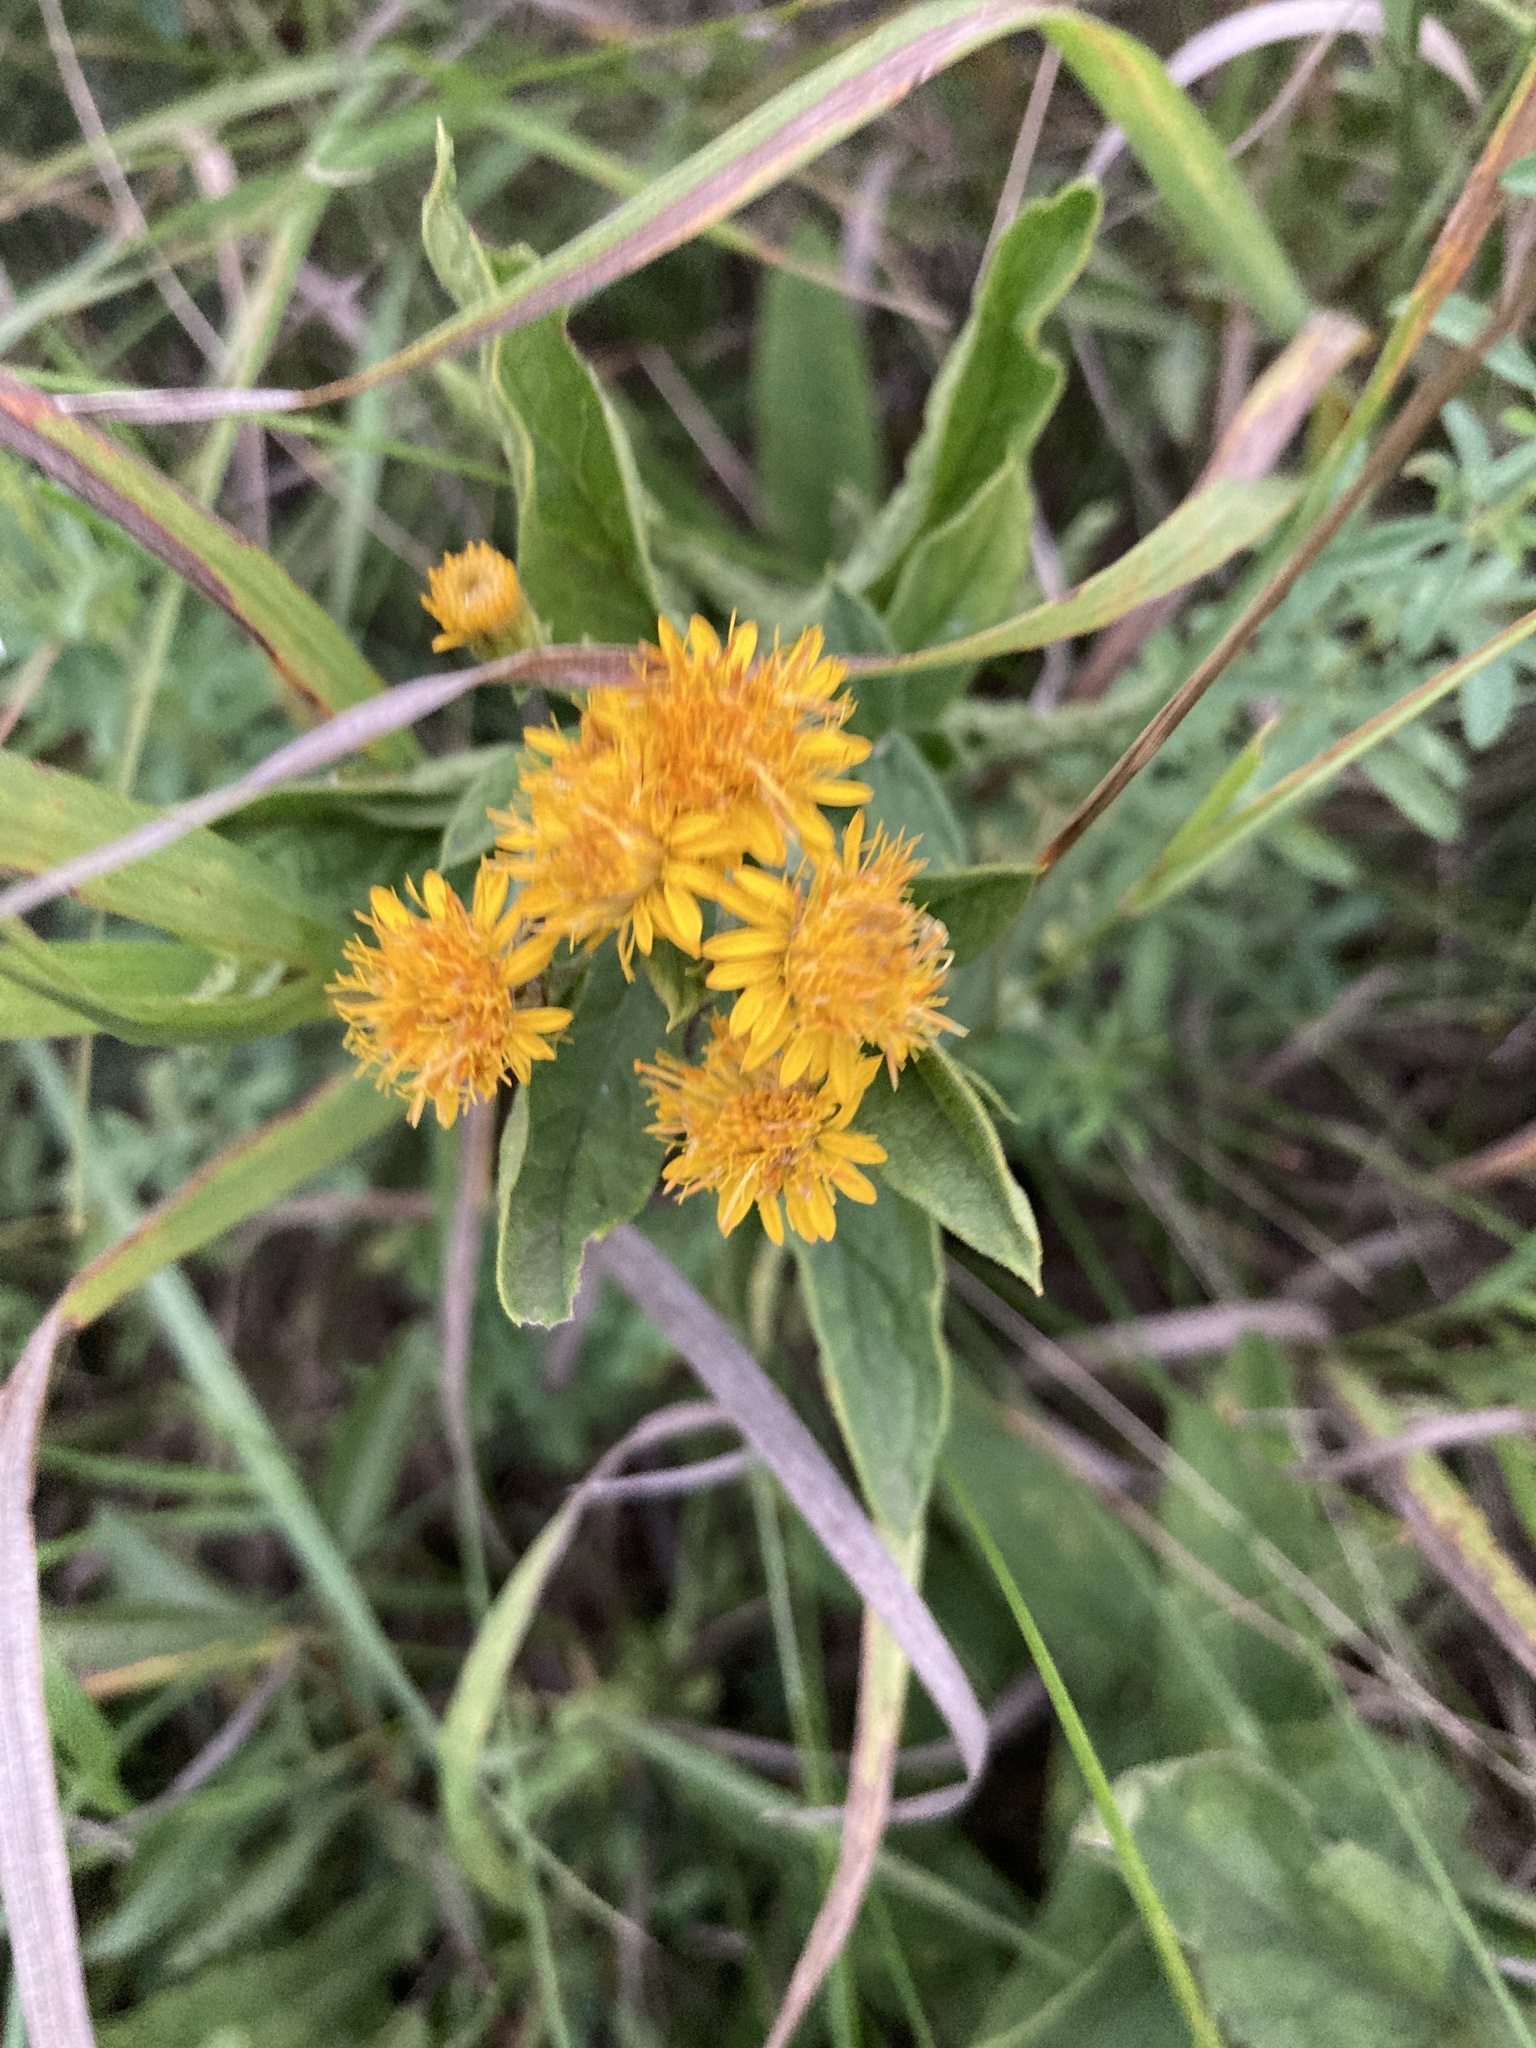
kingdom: Plantae
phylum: Tracheophyta
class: Magnoliopsida
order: Asterales
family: Asteraceae
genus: Pentanema
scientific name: Pentanema germanicum
